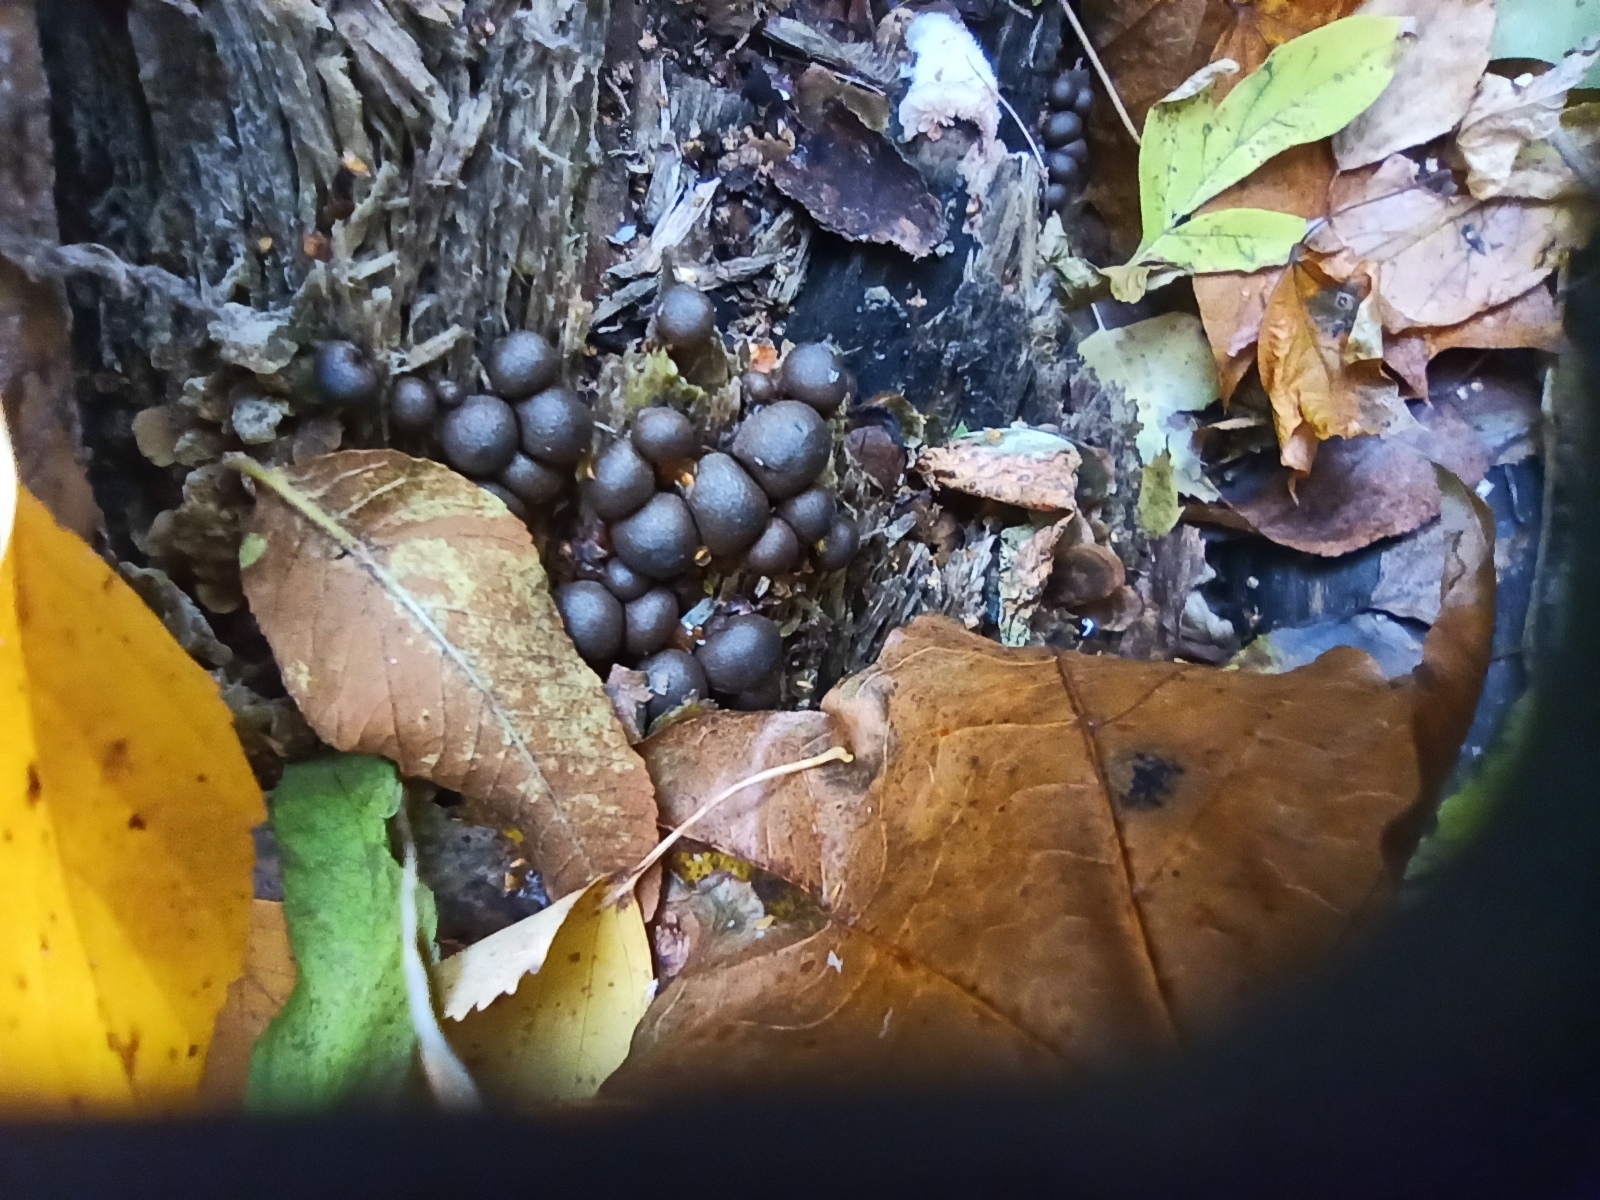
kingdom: Protozoa
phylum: Mycetozoa
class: Myxomycetes
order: Cribrariales
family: Tubiferaceae
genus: Lycogala
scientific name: Lycogala epidendrum
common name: Wolf's milk
